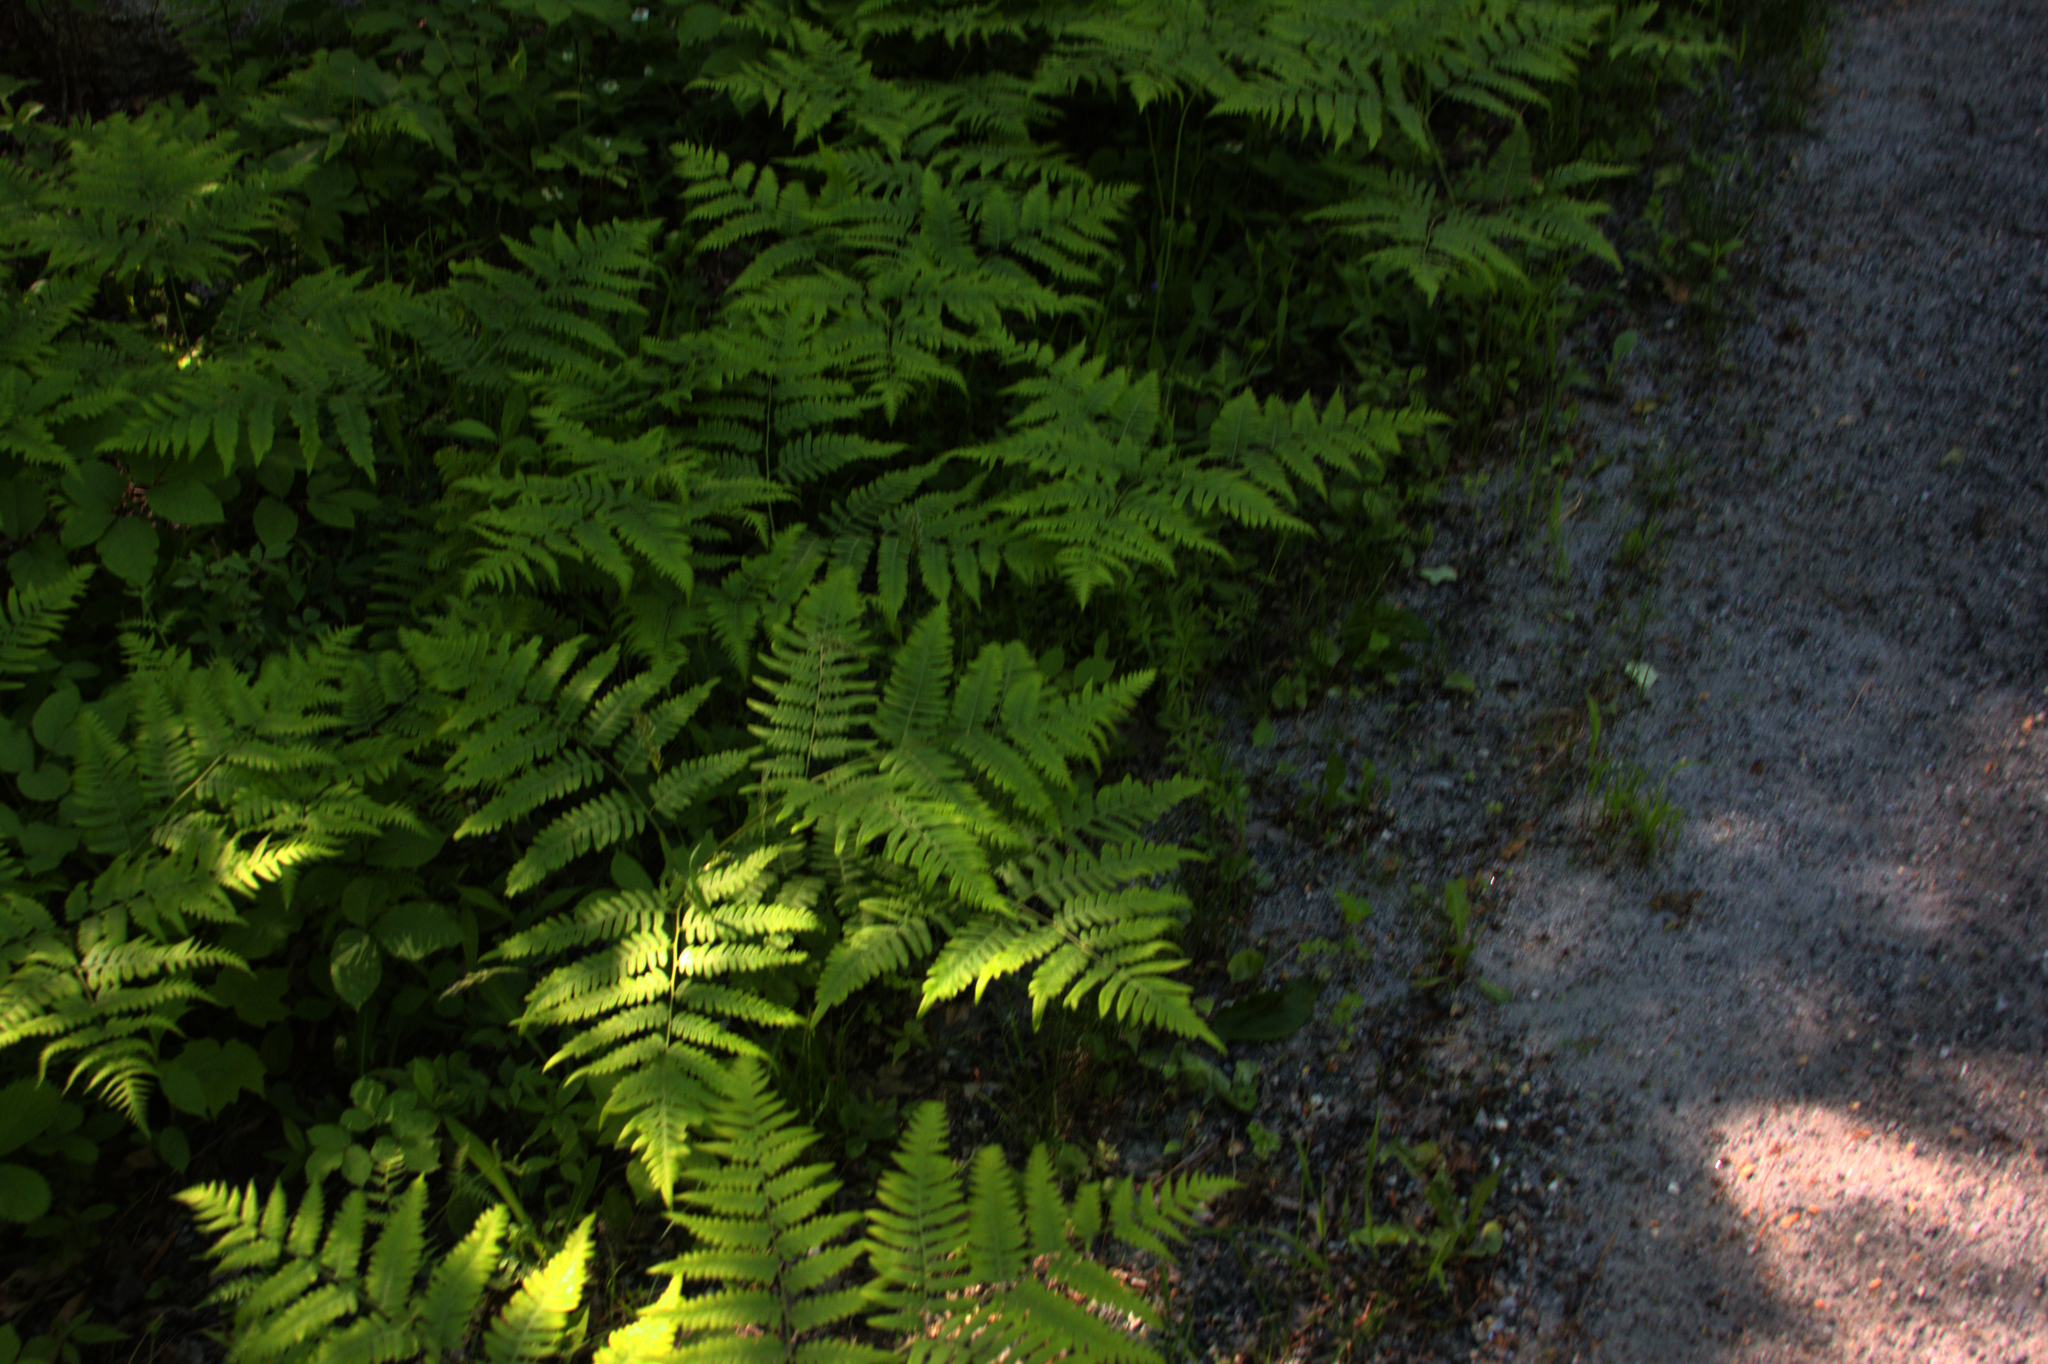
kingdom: Plantae
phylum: Tracheophyta
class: Polypodiopsida
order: Polypodiales
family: Dennstaedtiaceae
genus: Pteridium
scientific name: Pteridium aquilinum
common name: Bracken
